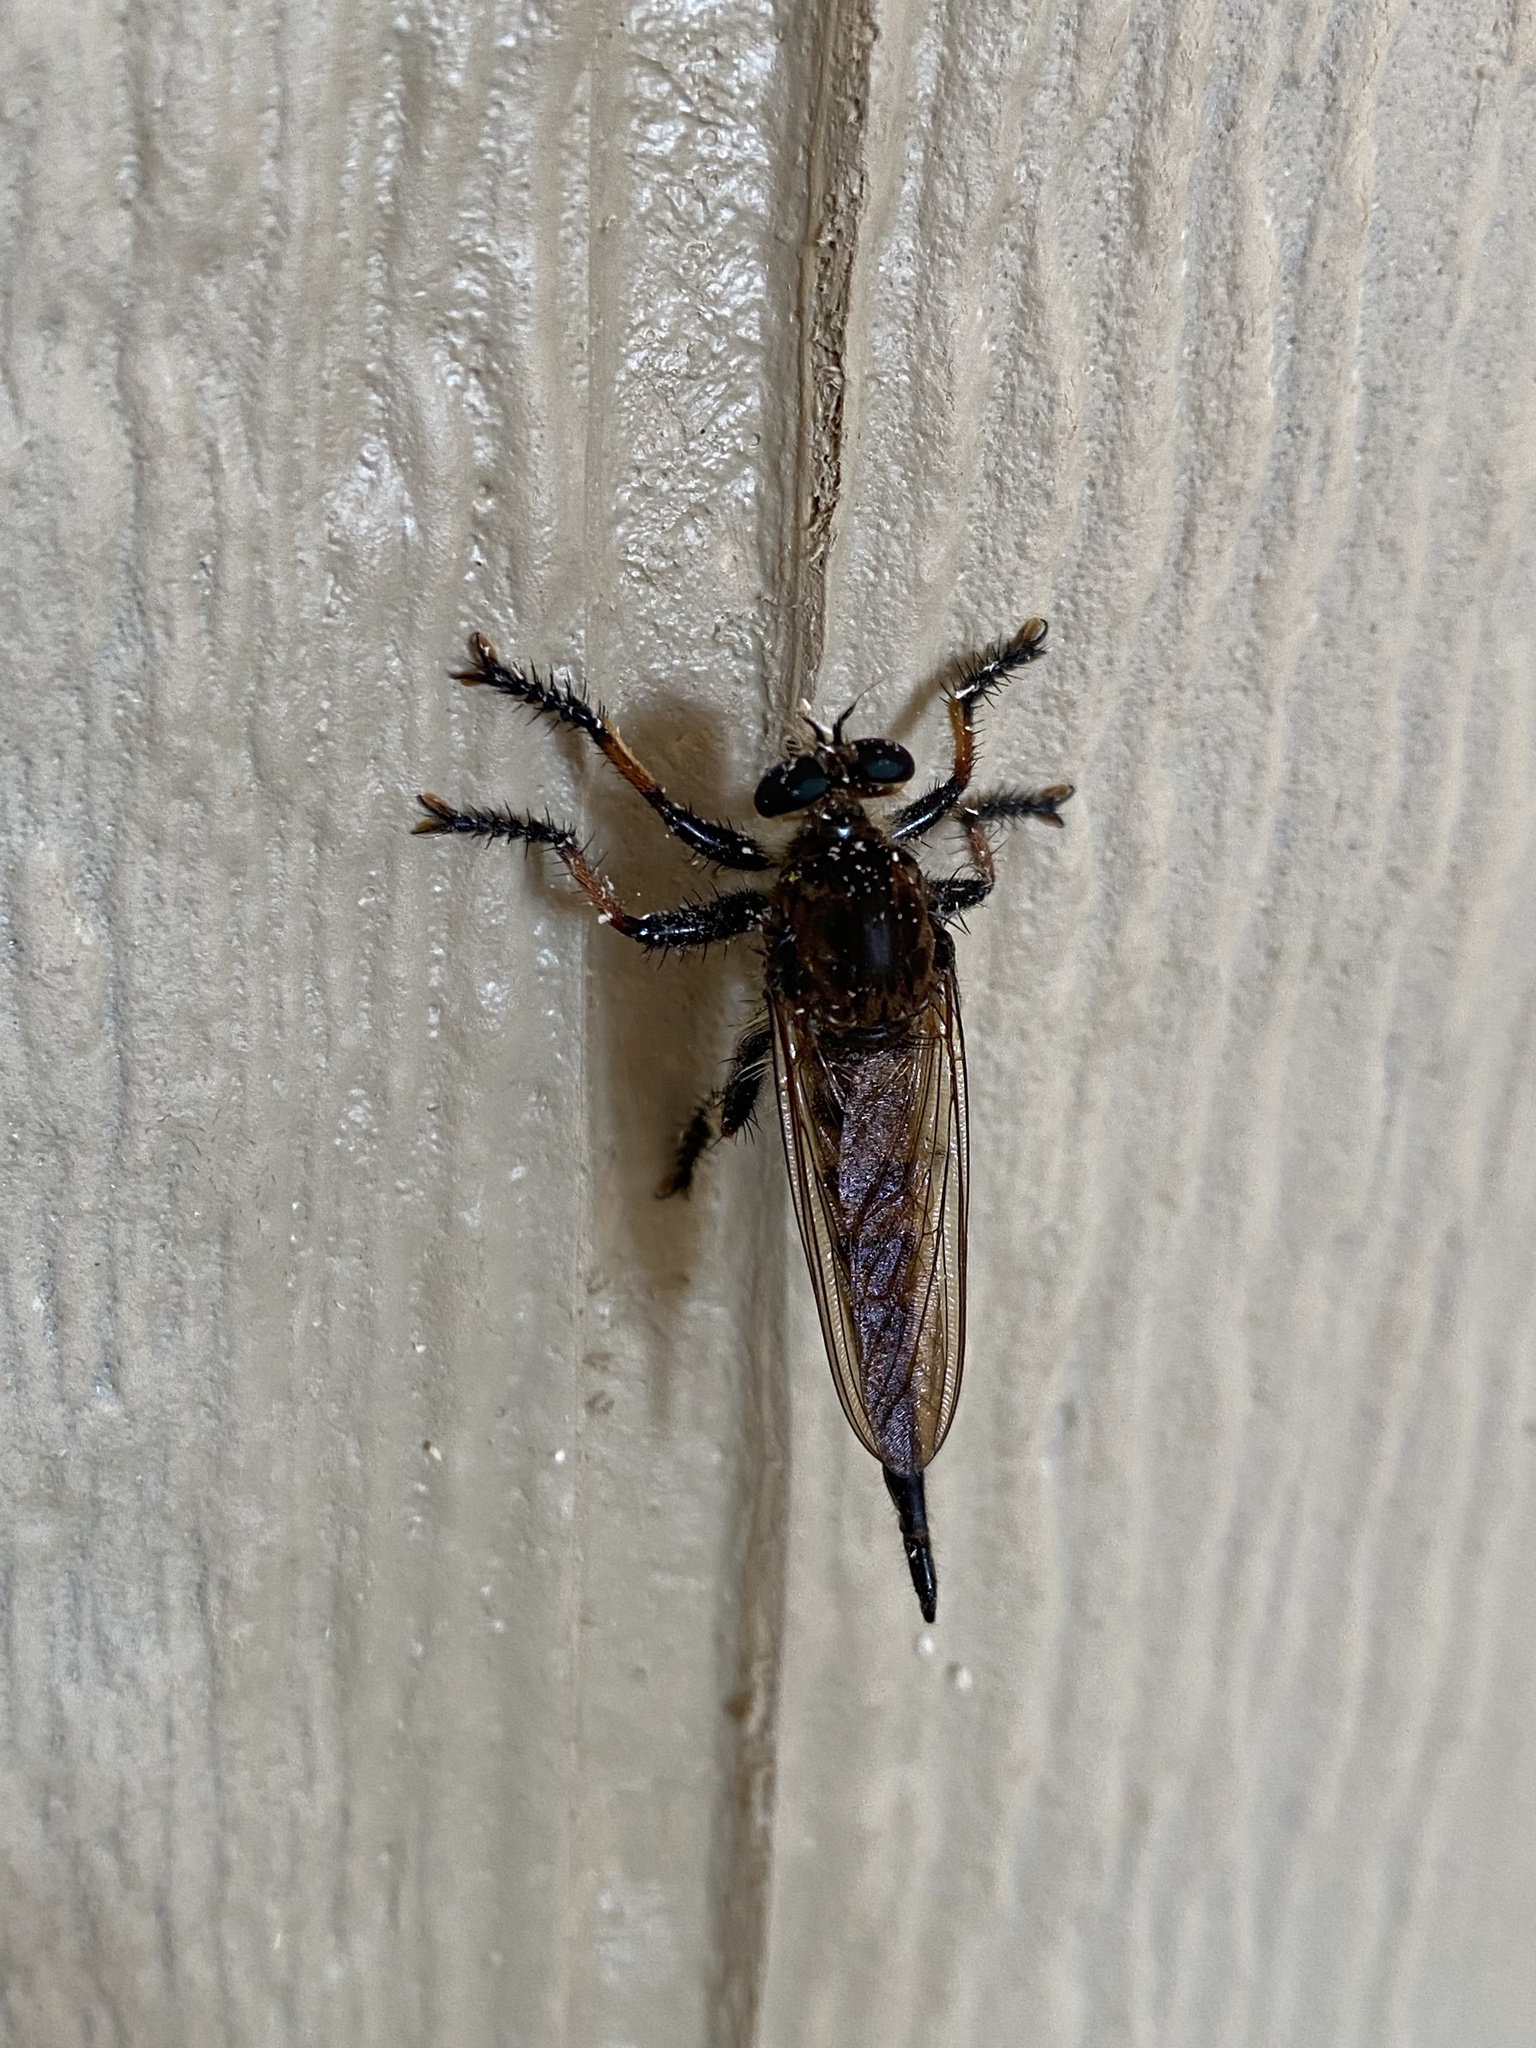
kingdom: Animalia
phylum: Arthropoda
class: Insecta
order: Diptera
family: Asilidae
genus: Promachus
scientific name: Promachus rufipes
